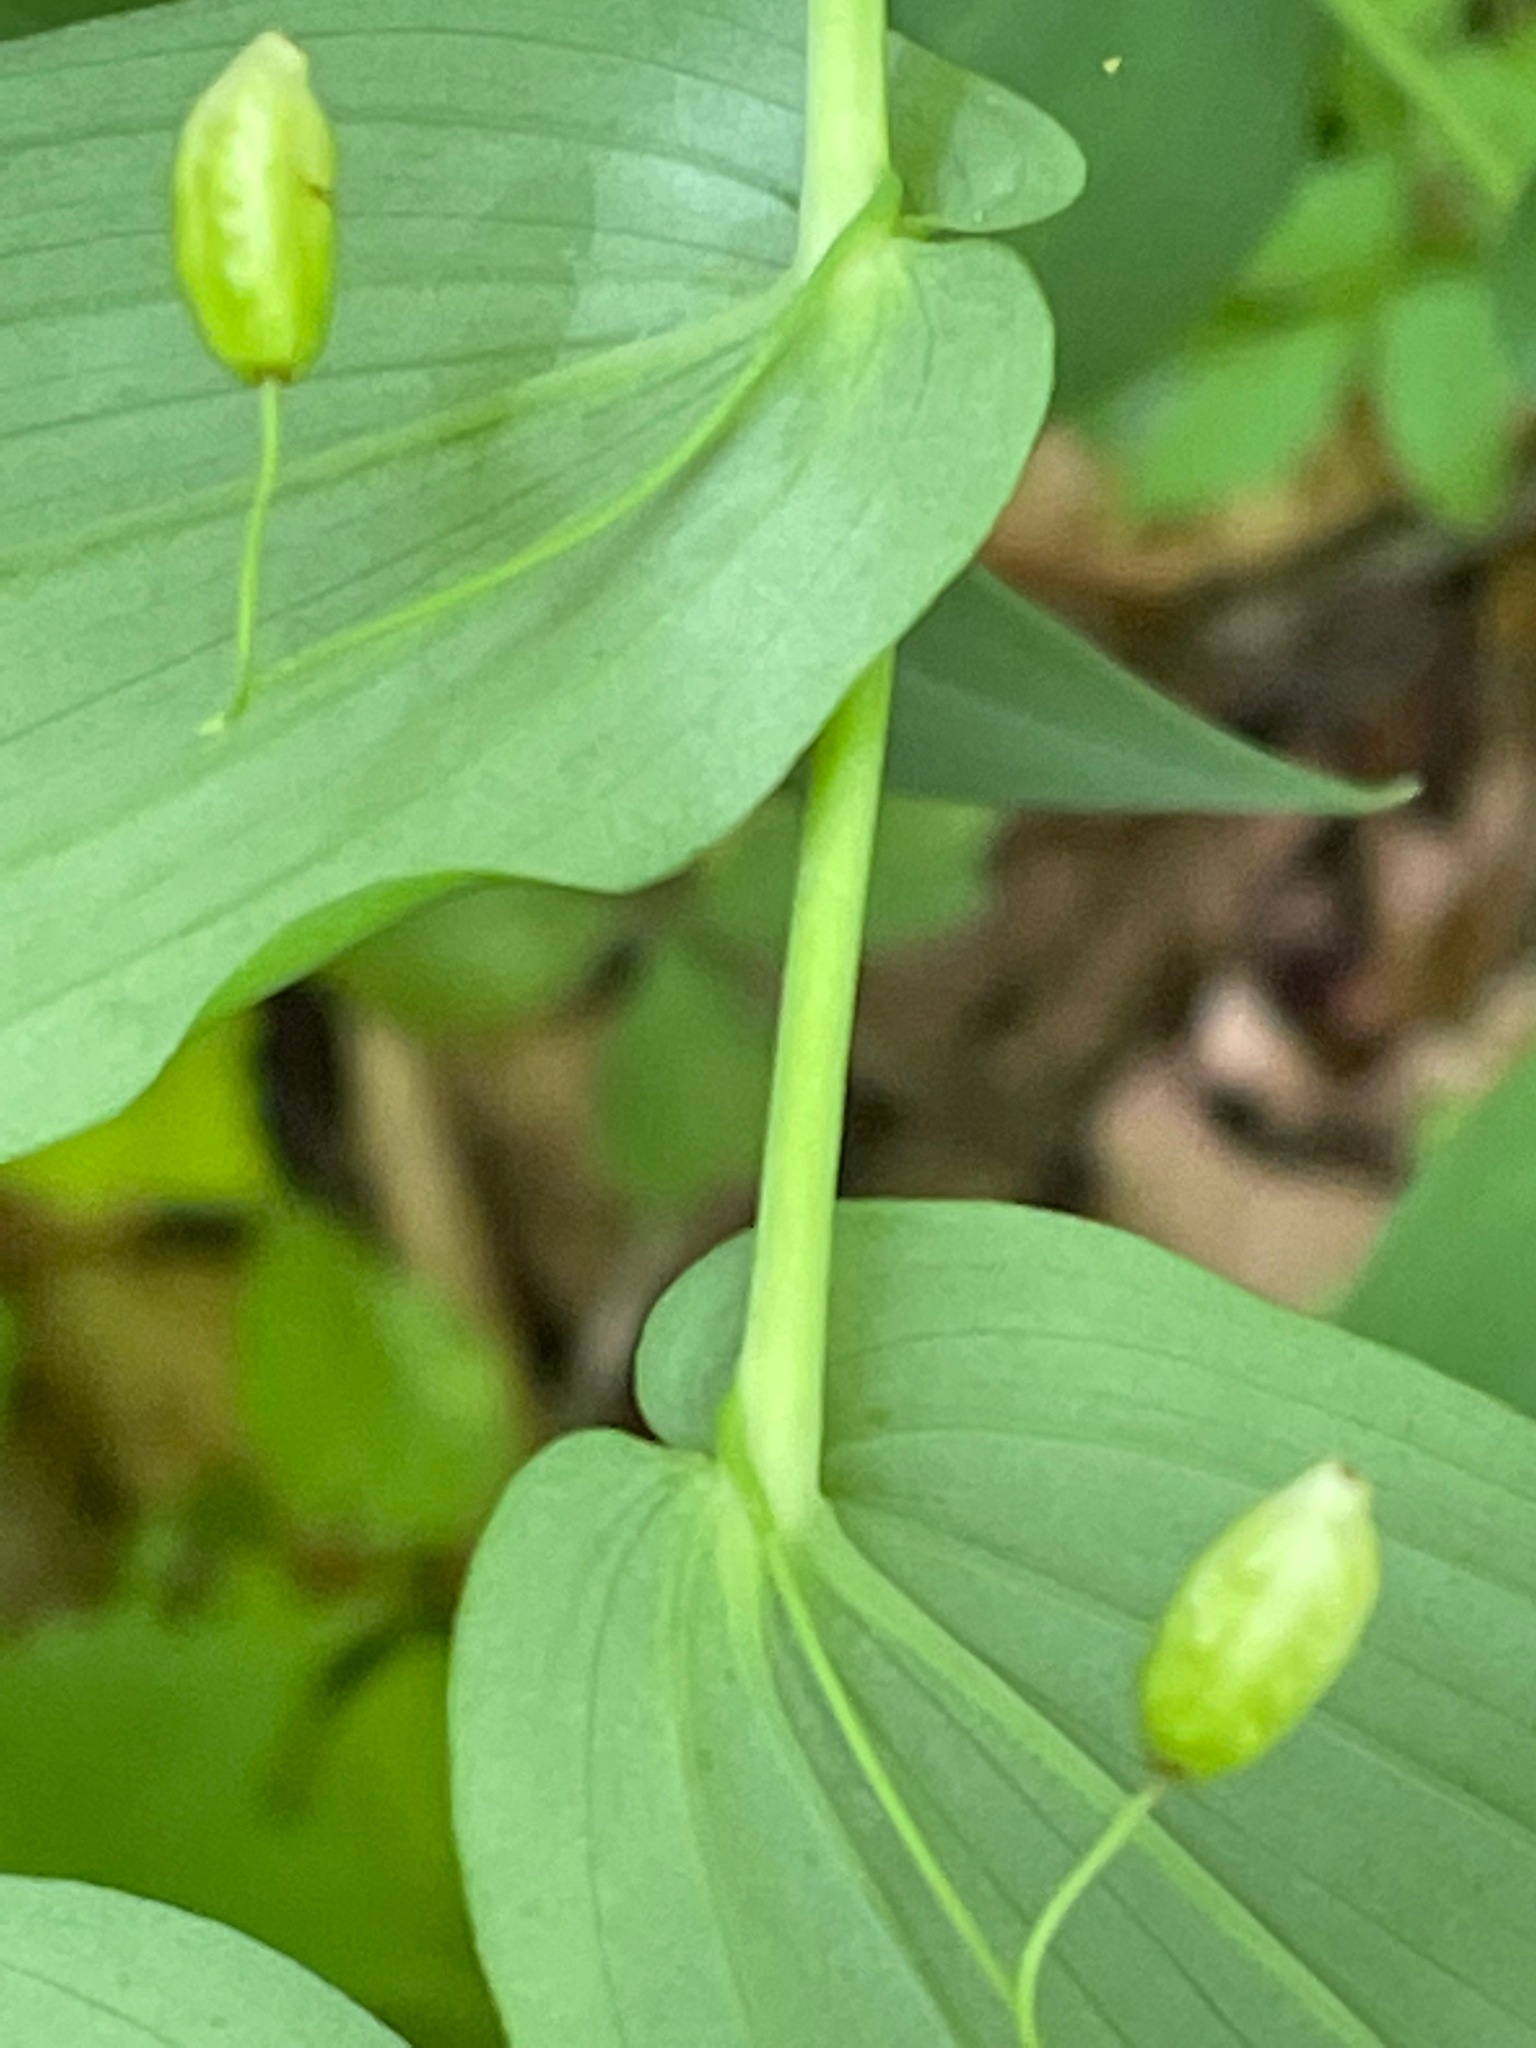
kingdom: Plantae
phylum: Tracheophyta
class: Liliopsida
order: Liliales
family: Liliaceae
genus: Streptopus
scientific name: Streptopus amplexifolius
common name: Clasp twisted stalk
